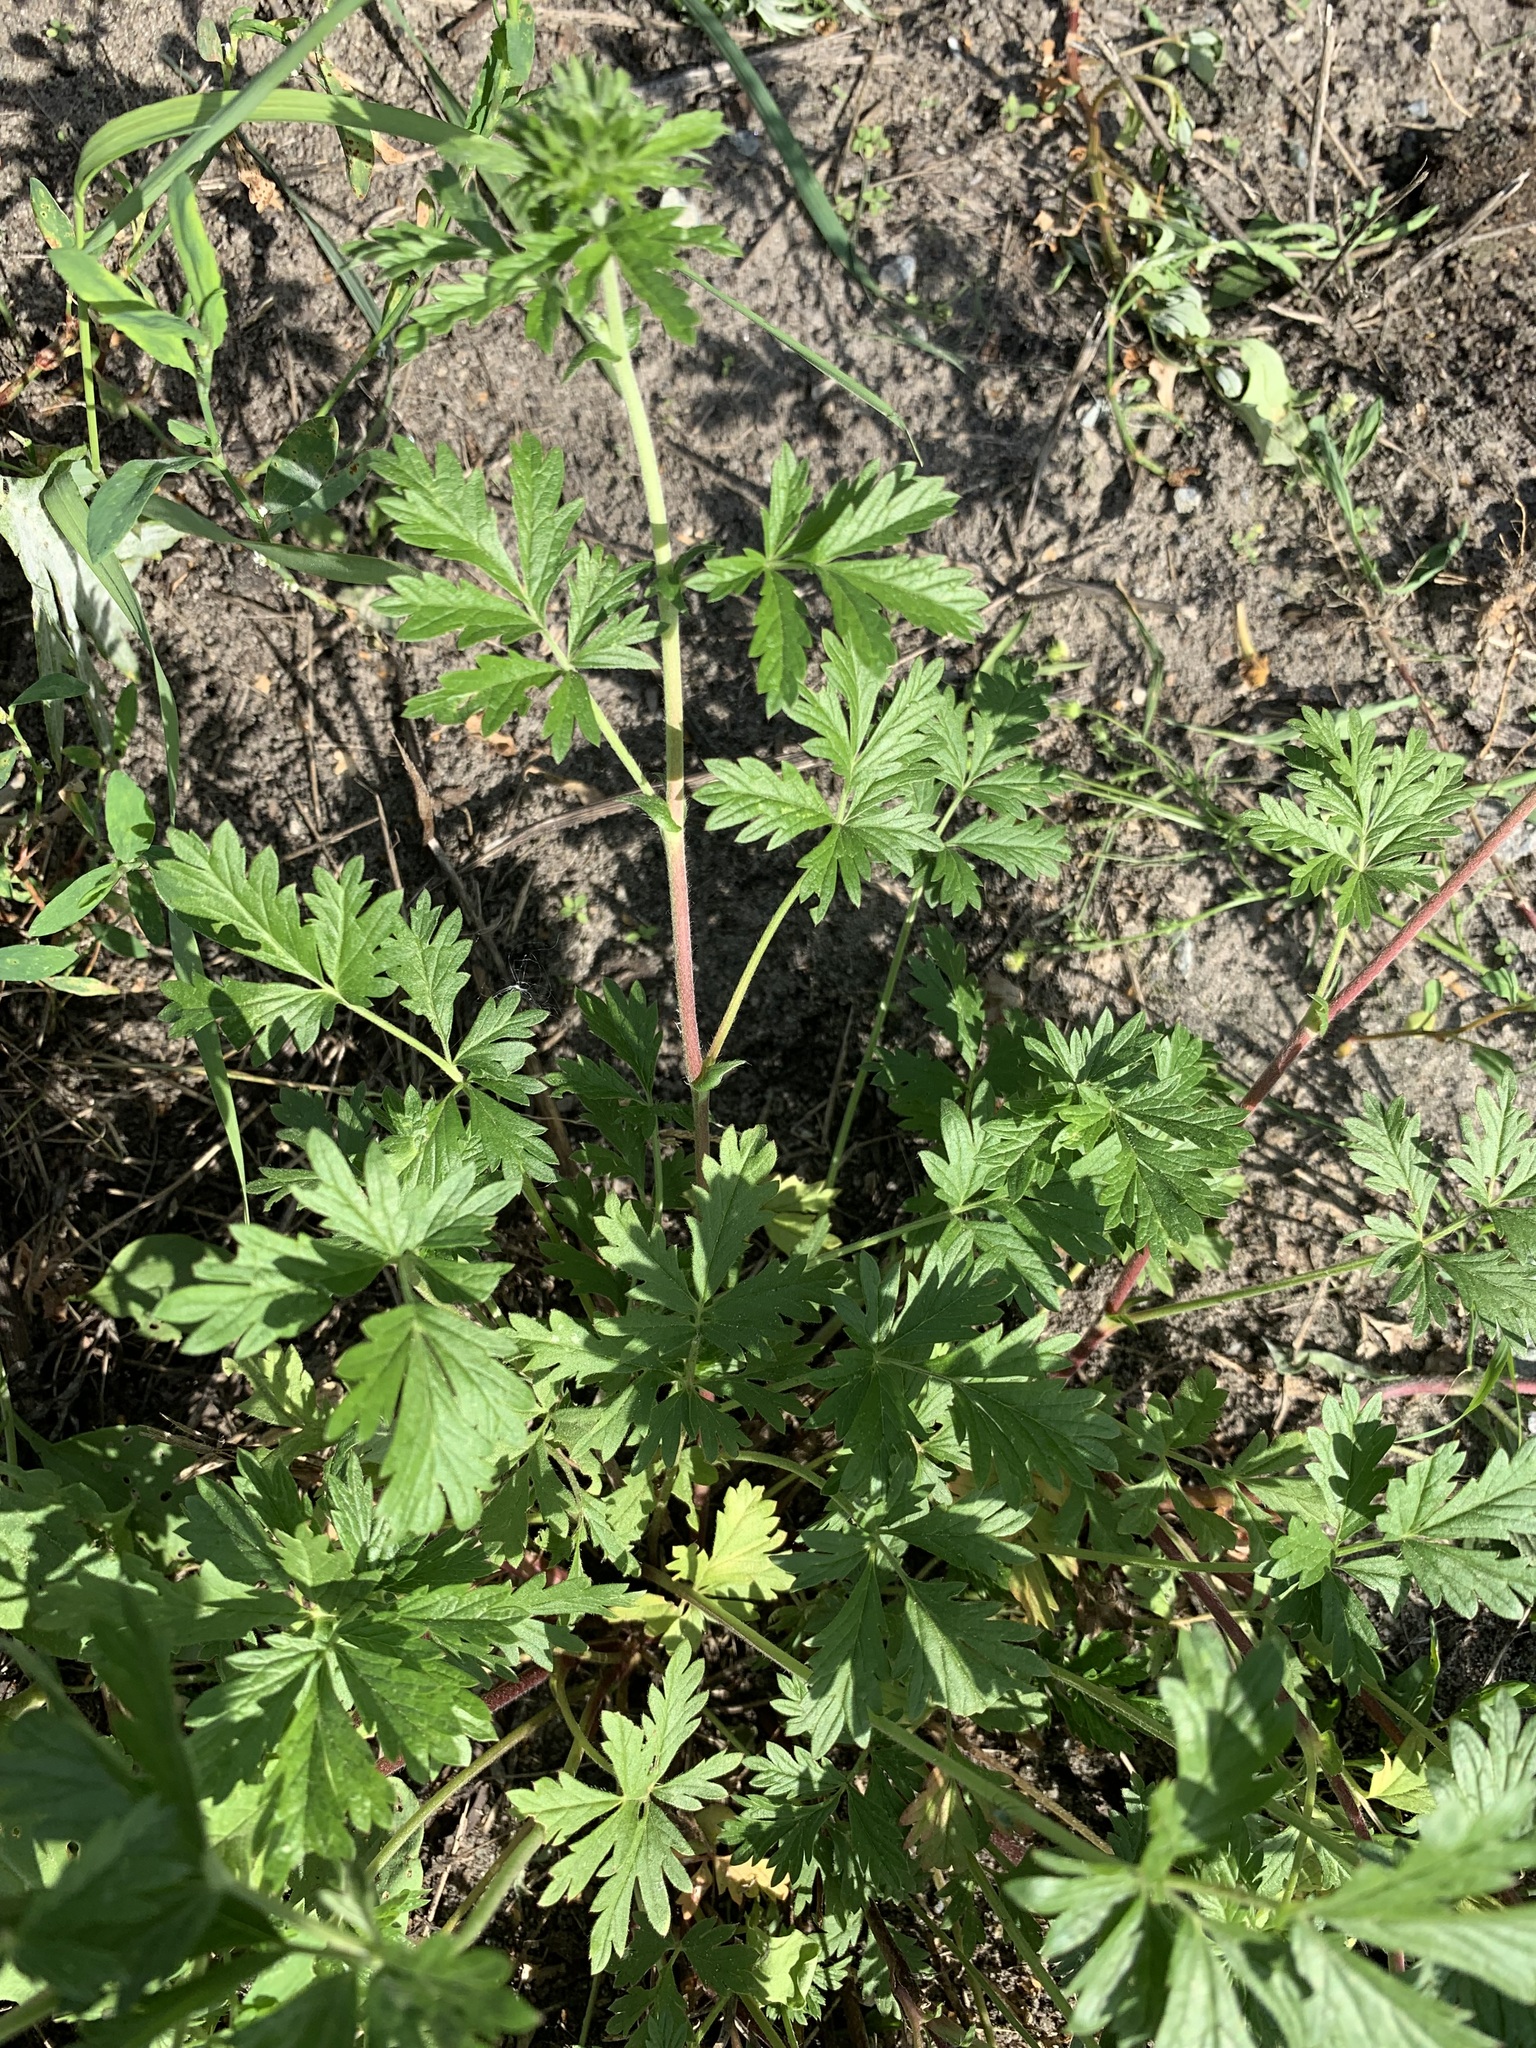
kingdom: Plantae
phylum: Tracheophyta
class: Magnoliopsida
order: Rosales
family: Rosaceae
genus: Potentilla
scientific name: Potentilla tobolensis
